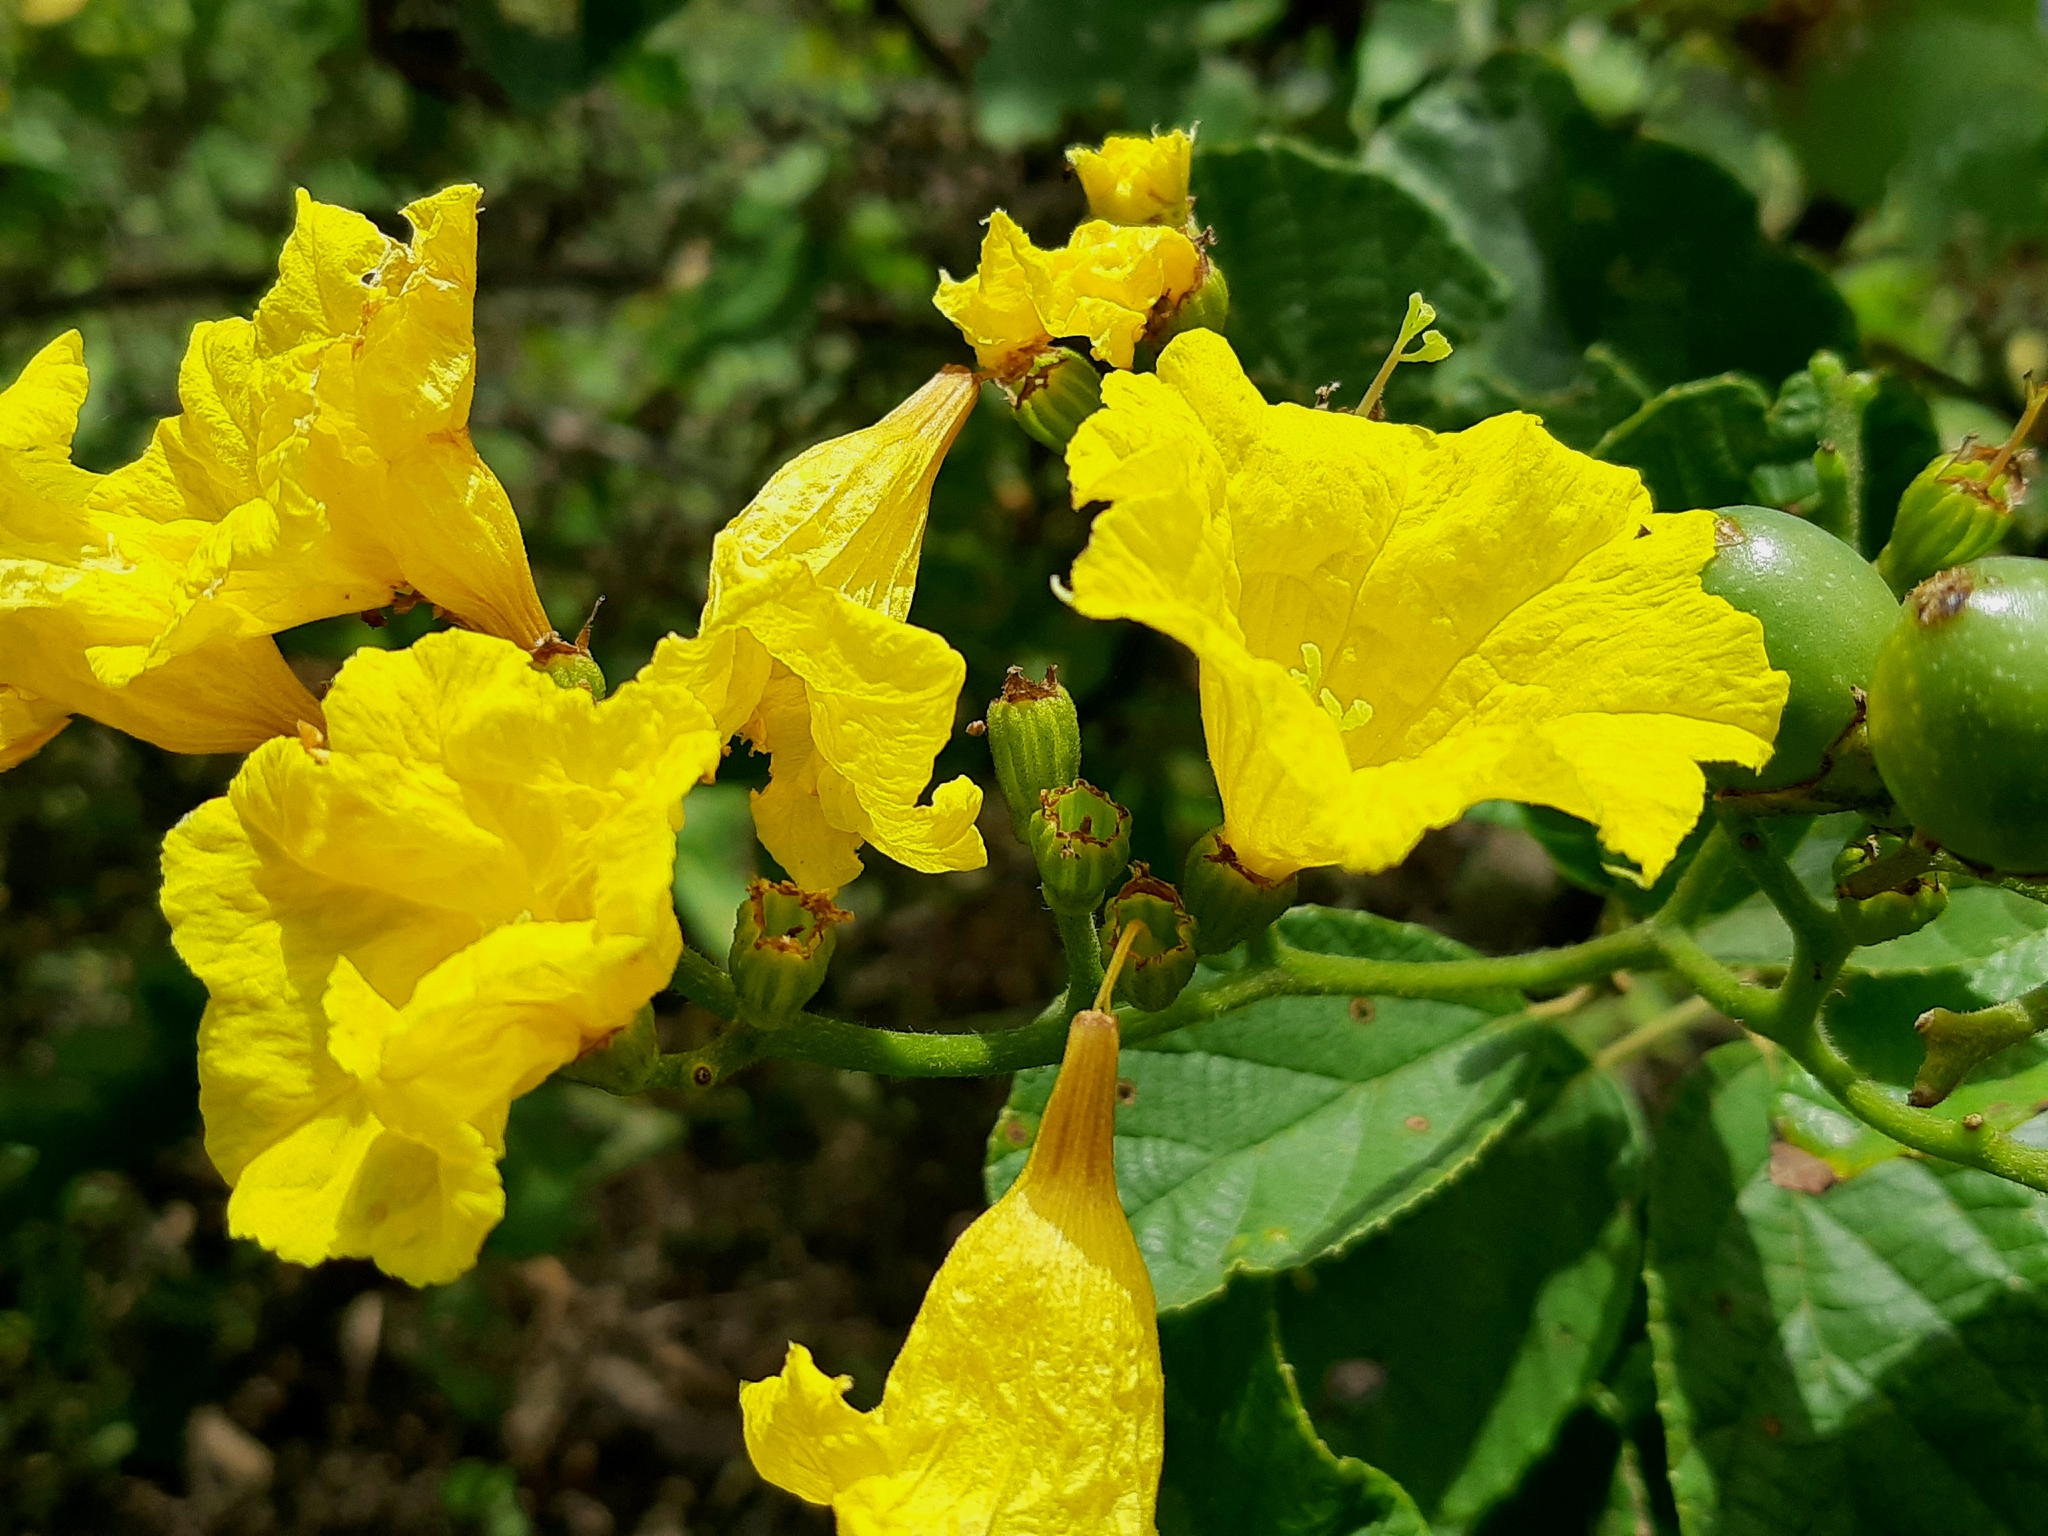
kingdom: Plantae
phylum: Tracheophyta
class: Magnoliopsida
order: Boraginales
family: Cordiaceae
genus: Cordia
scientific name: Cordia lutea
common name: Yellow geiger
